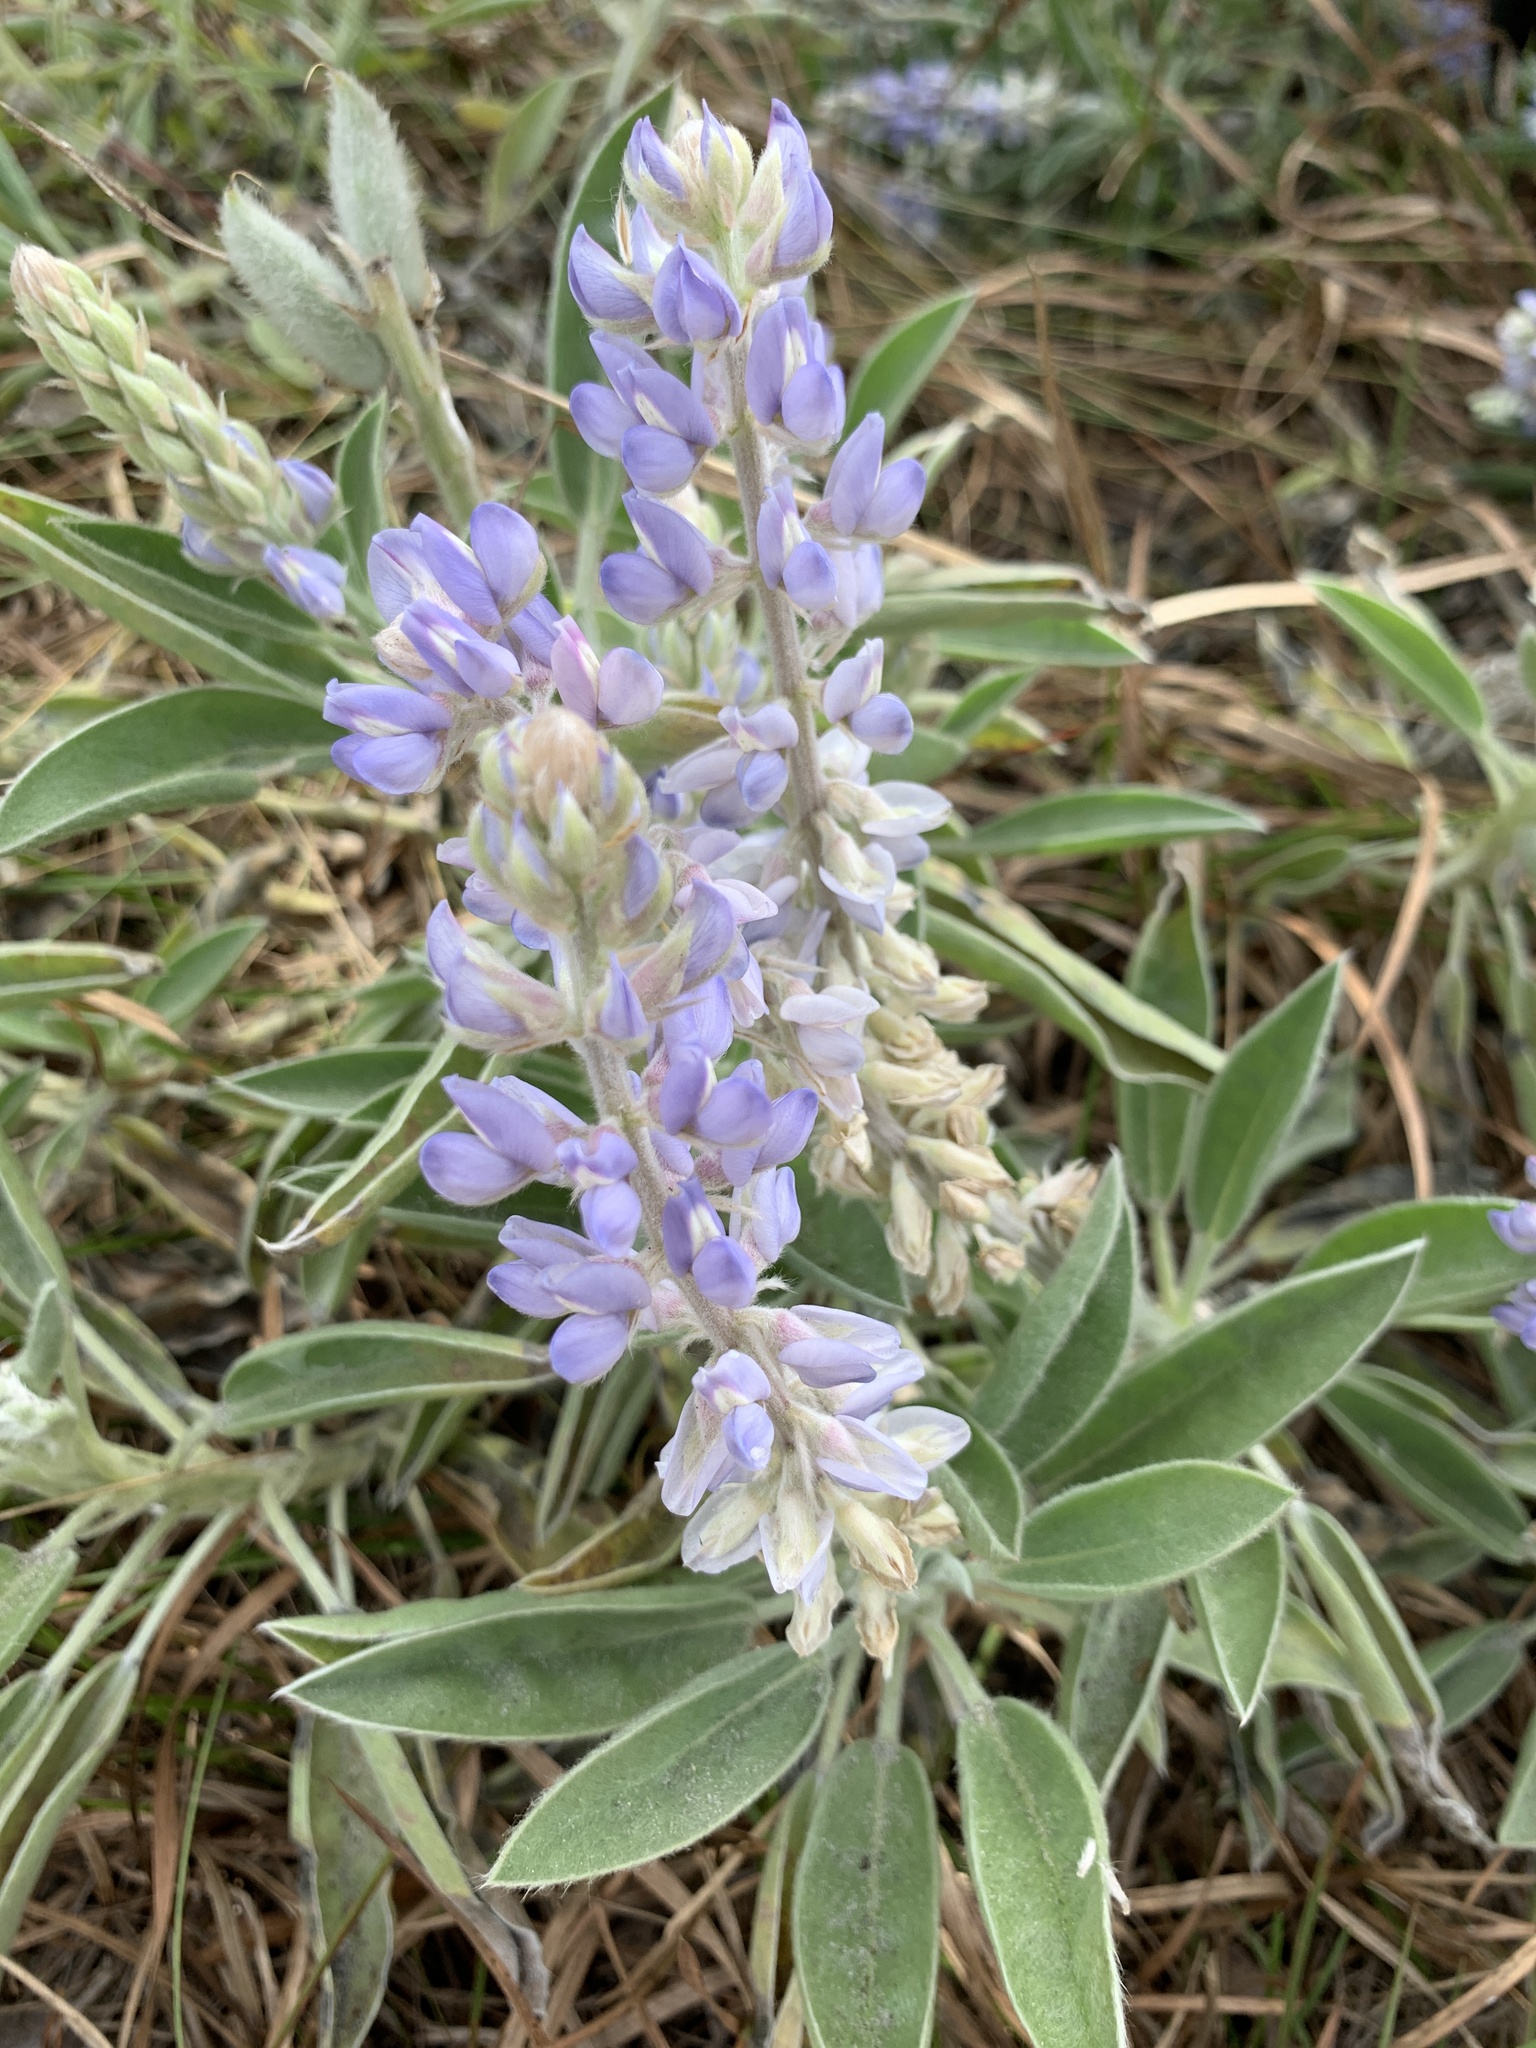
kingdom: Plantae
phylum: Tracheophyta
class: Magnoliopsida
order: Fabales
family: Fabaceae
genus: Lupinus
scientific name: Lupinus
